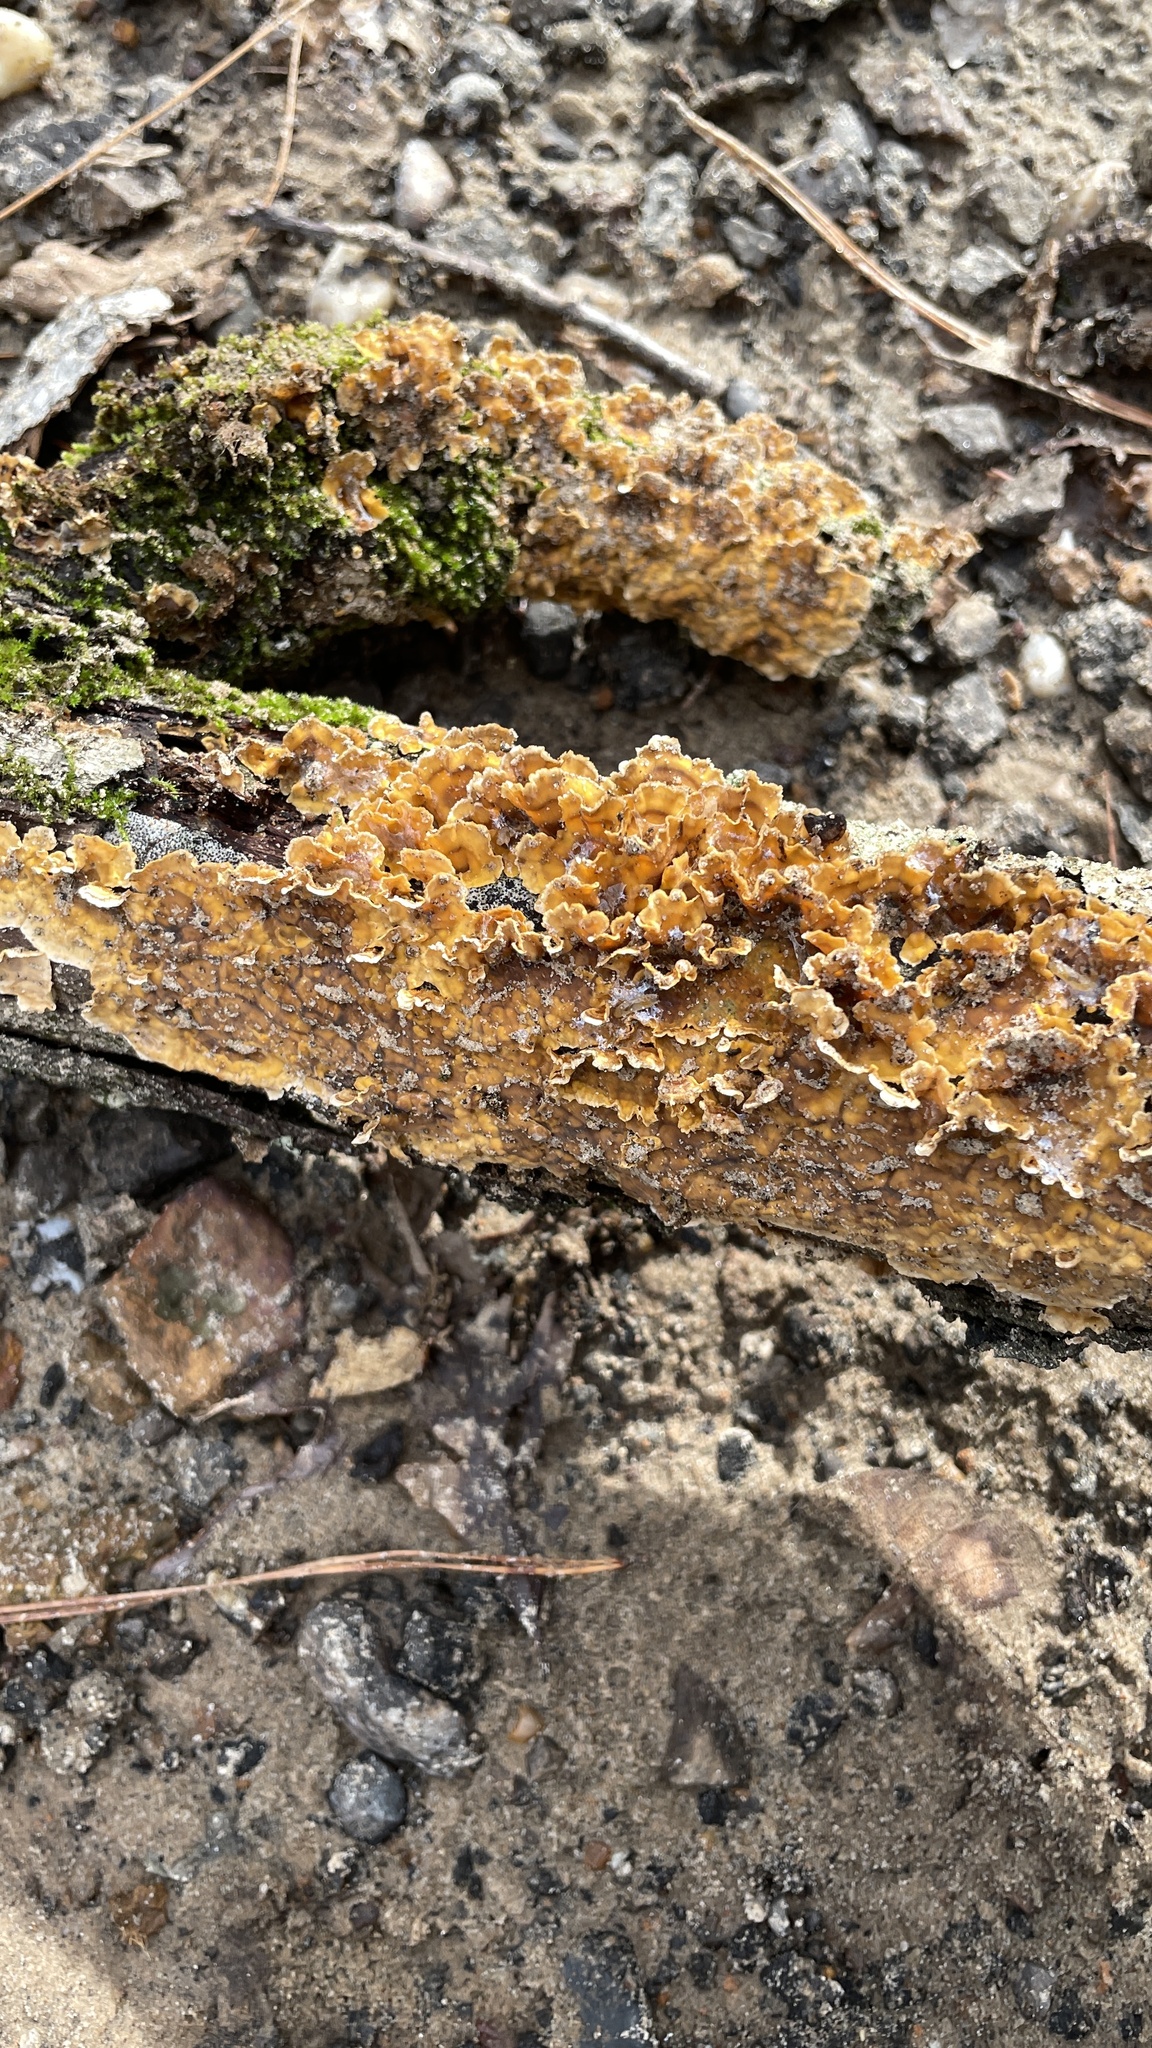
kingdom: Fungi
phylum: Basidiomycota
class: Agaricomycetes
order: Russulales
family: Stereaceae
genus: Stereum
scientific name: Stereum complicatum
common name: Crowded parchment
